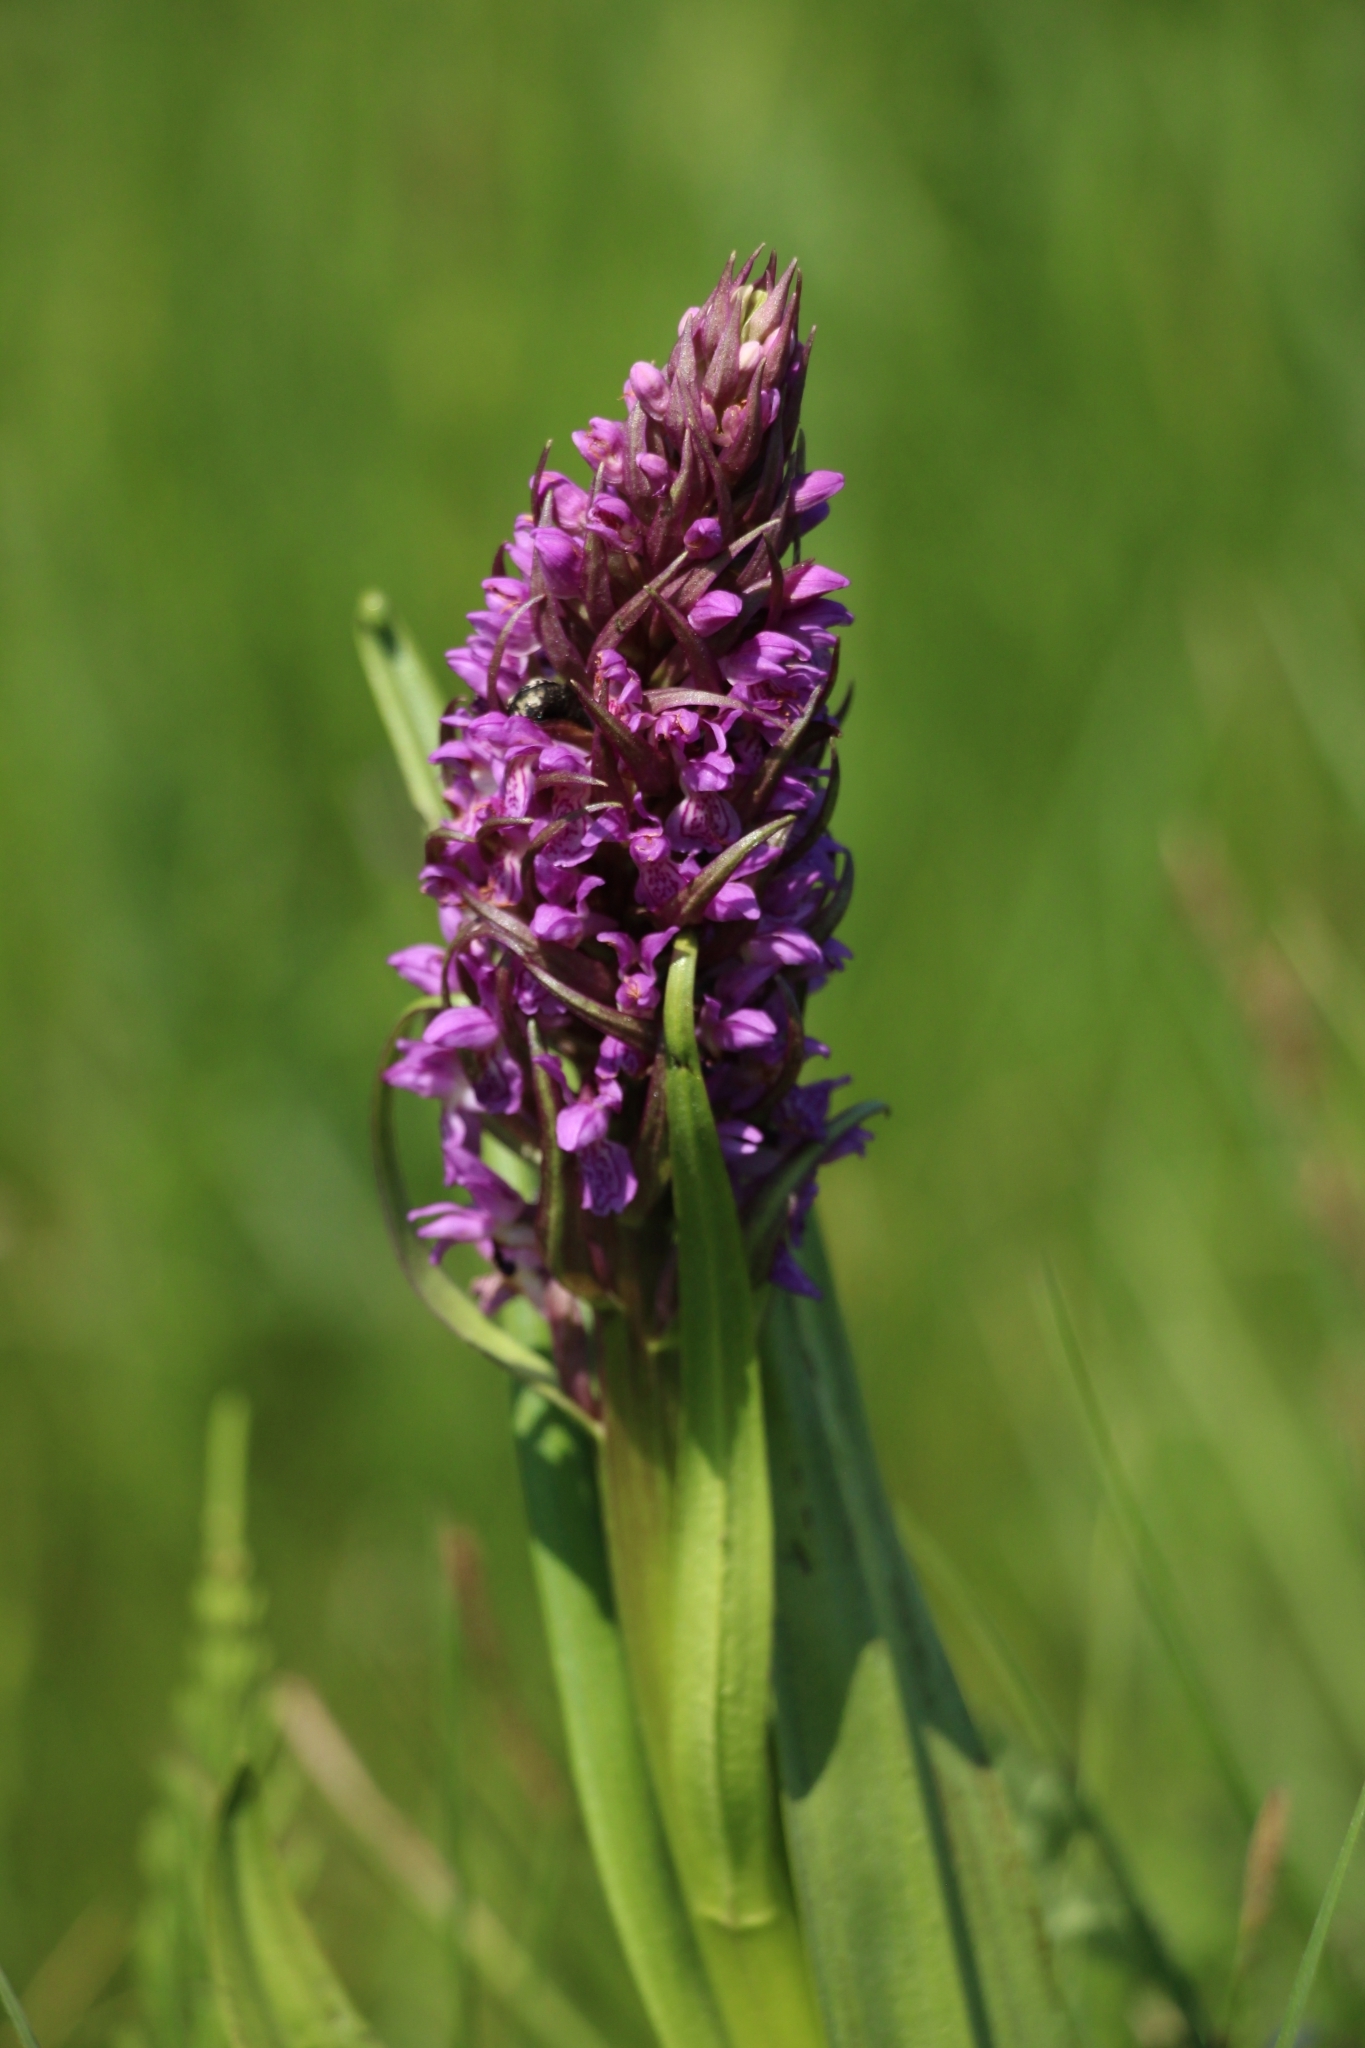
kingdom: Plantae
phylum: Tracheophyta
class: Liliopsida
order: Asparagales
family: Orchidaceae
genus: Dactylorhiza
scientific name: Dactylorhiza incarnata
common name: Early marsh-orchid
